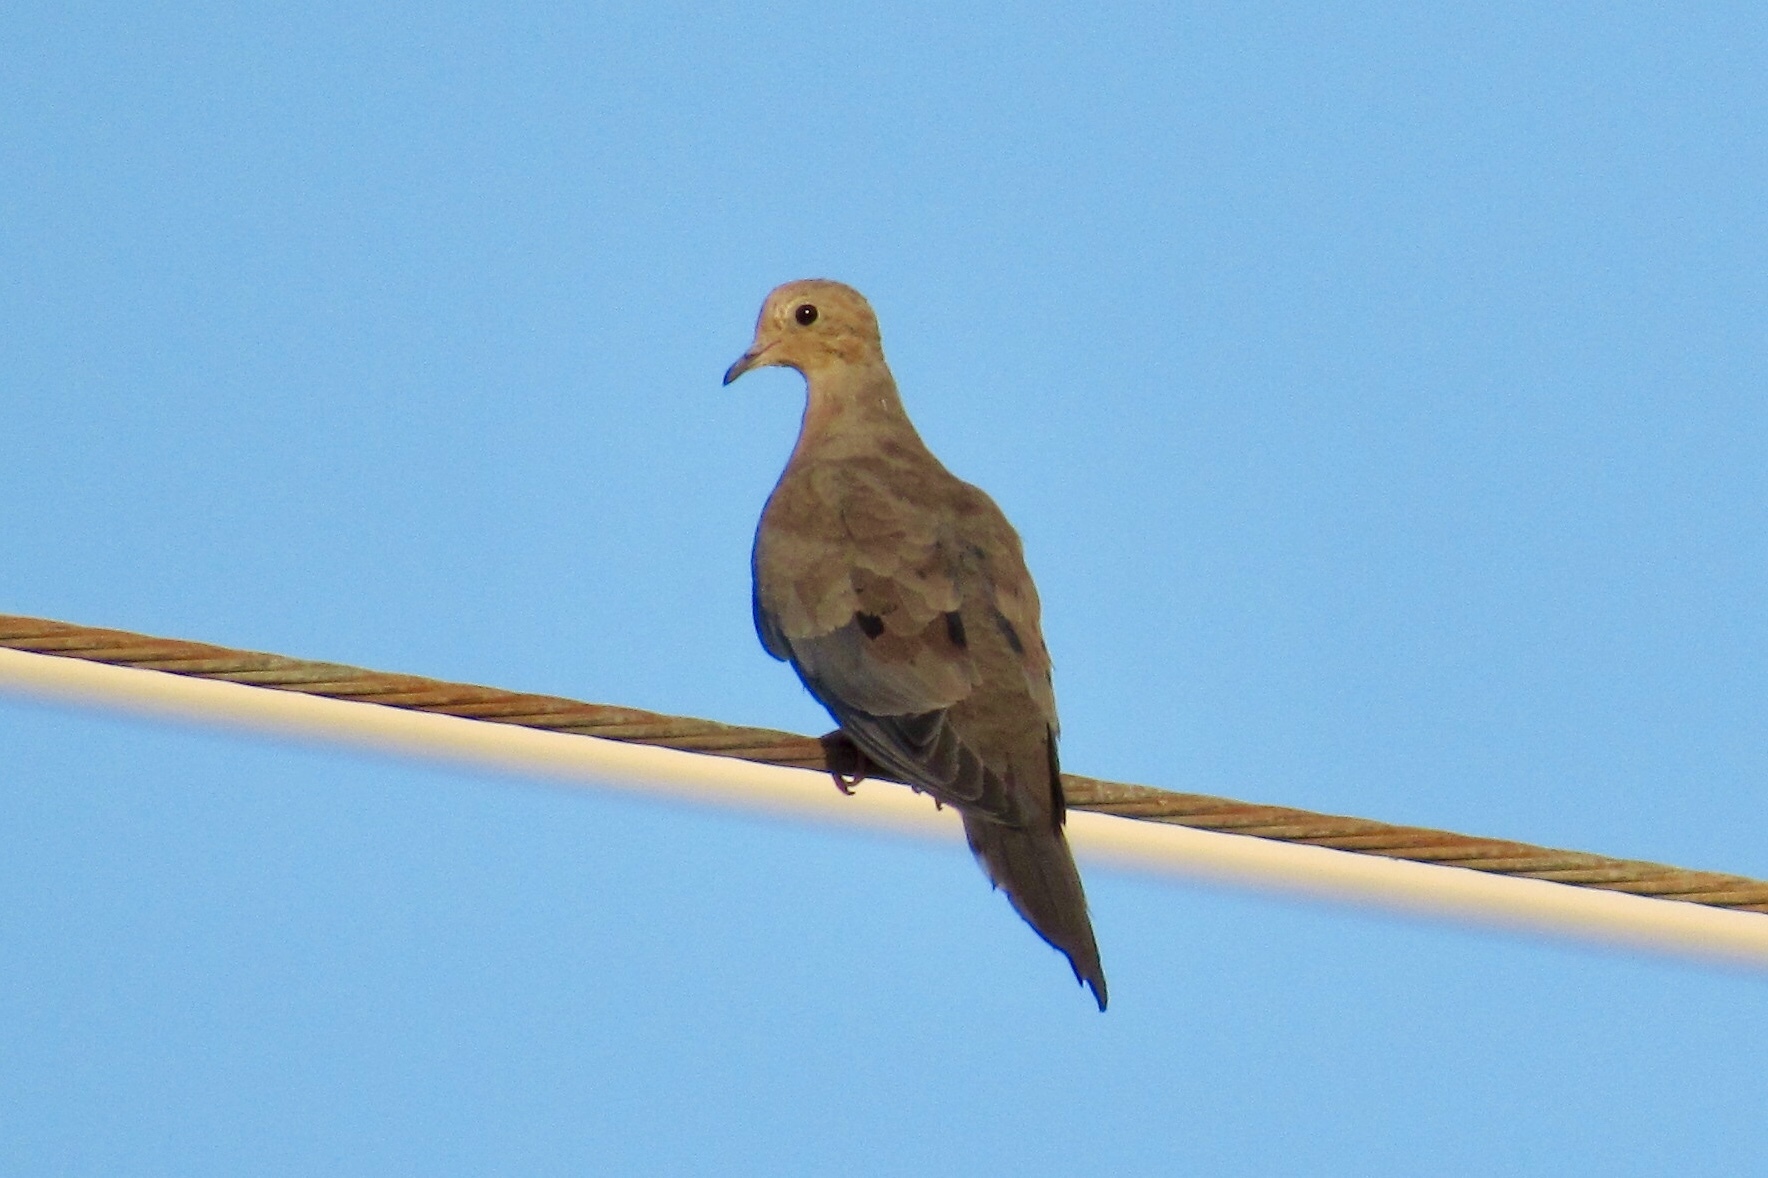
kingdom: Animalia
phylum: Chordata
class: Aves
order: Columbiformes
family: Columbidae
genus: Zenaida
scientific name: Zenaida macroura
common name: Mourning dove
